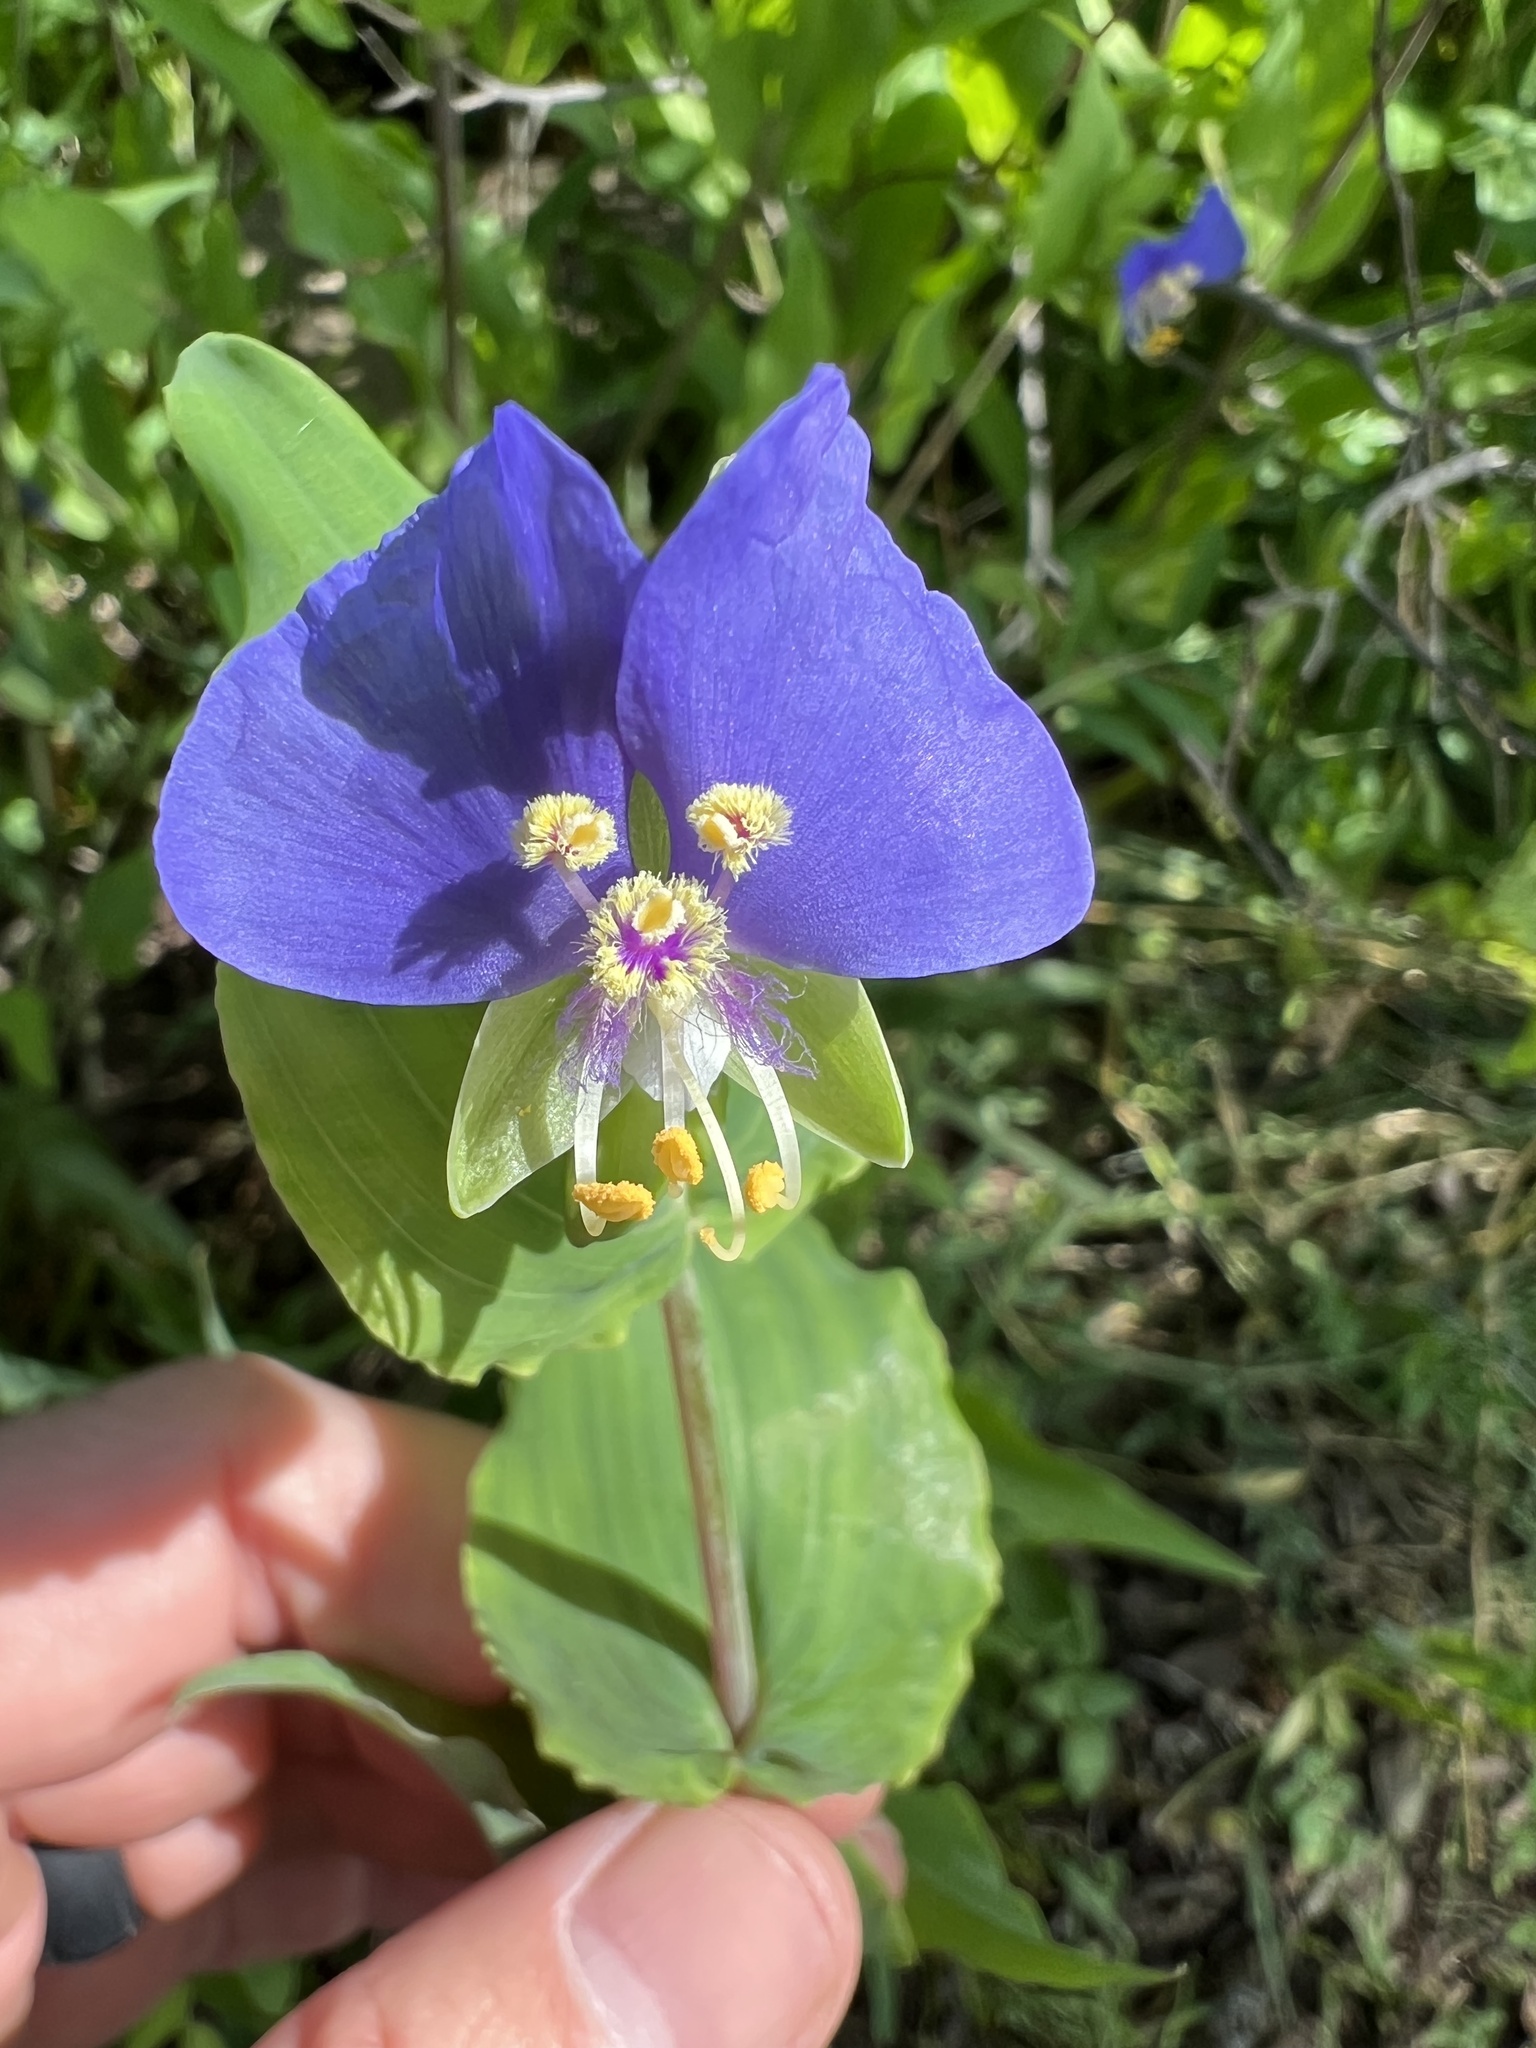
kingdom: Plantae
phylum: Tracheophyta
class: Liliopsida
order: Commelinales
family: Commelinaceae
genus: Tinantia
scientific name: Tinantia anomala
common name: False dayflower
